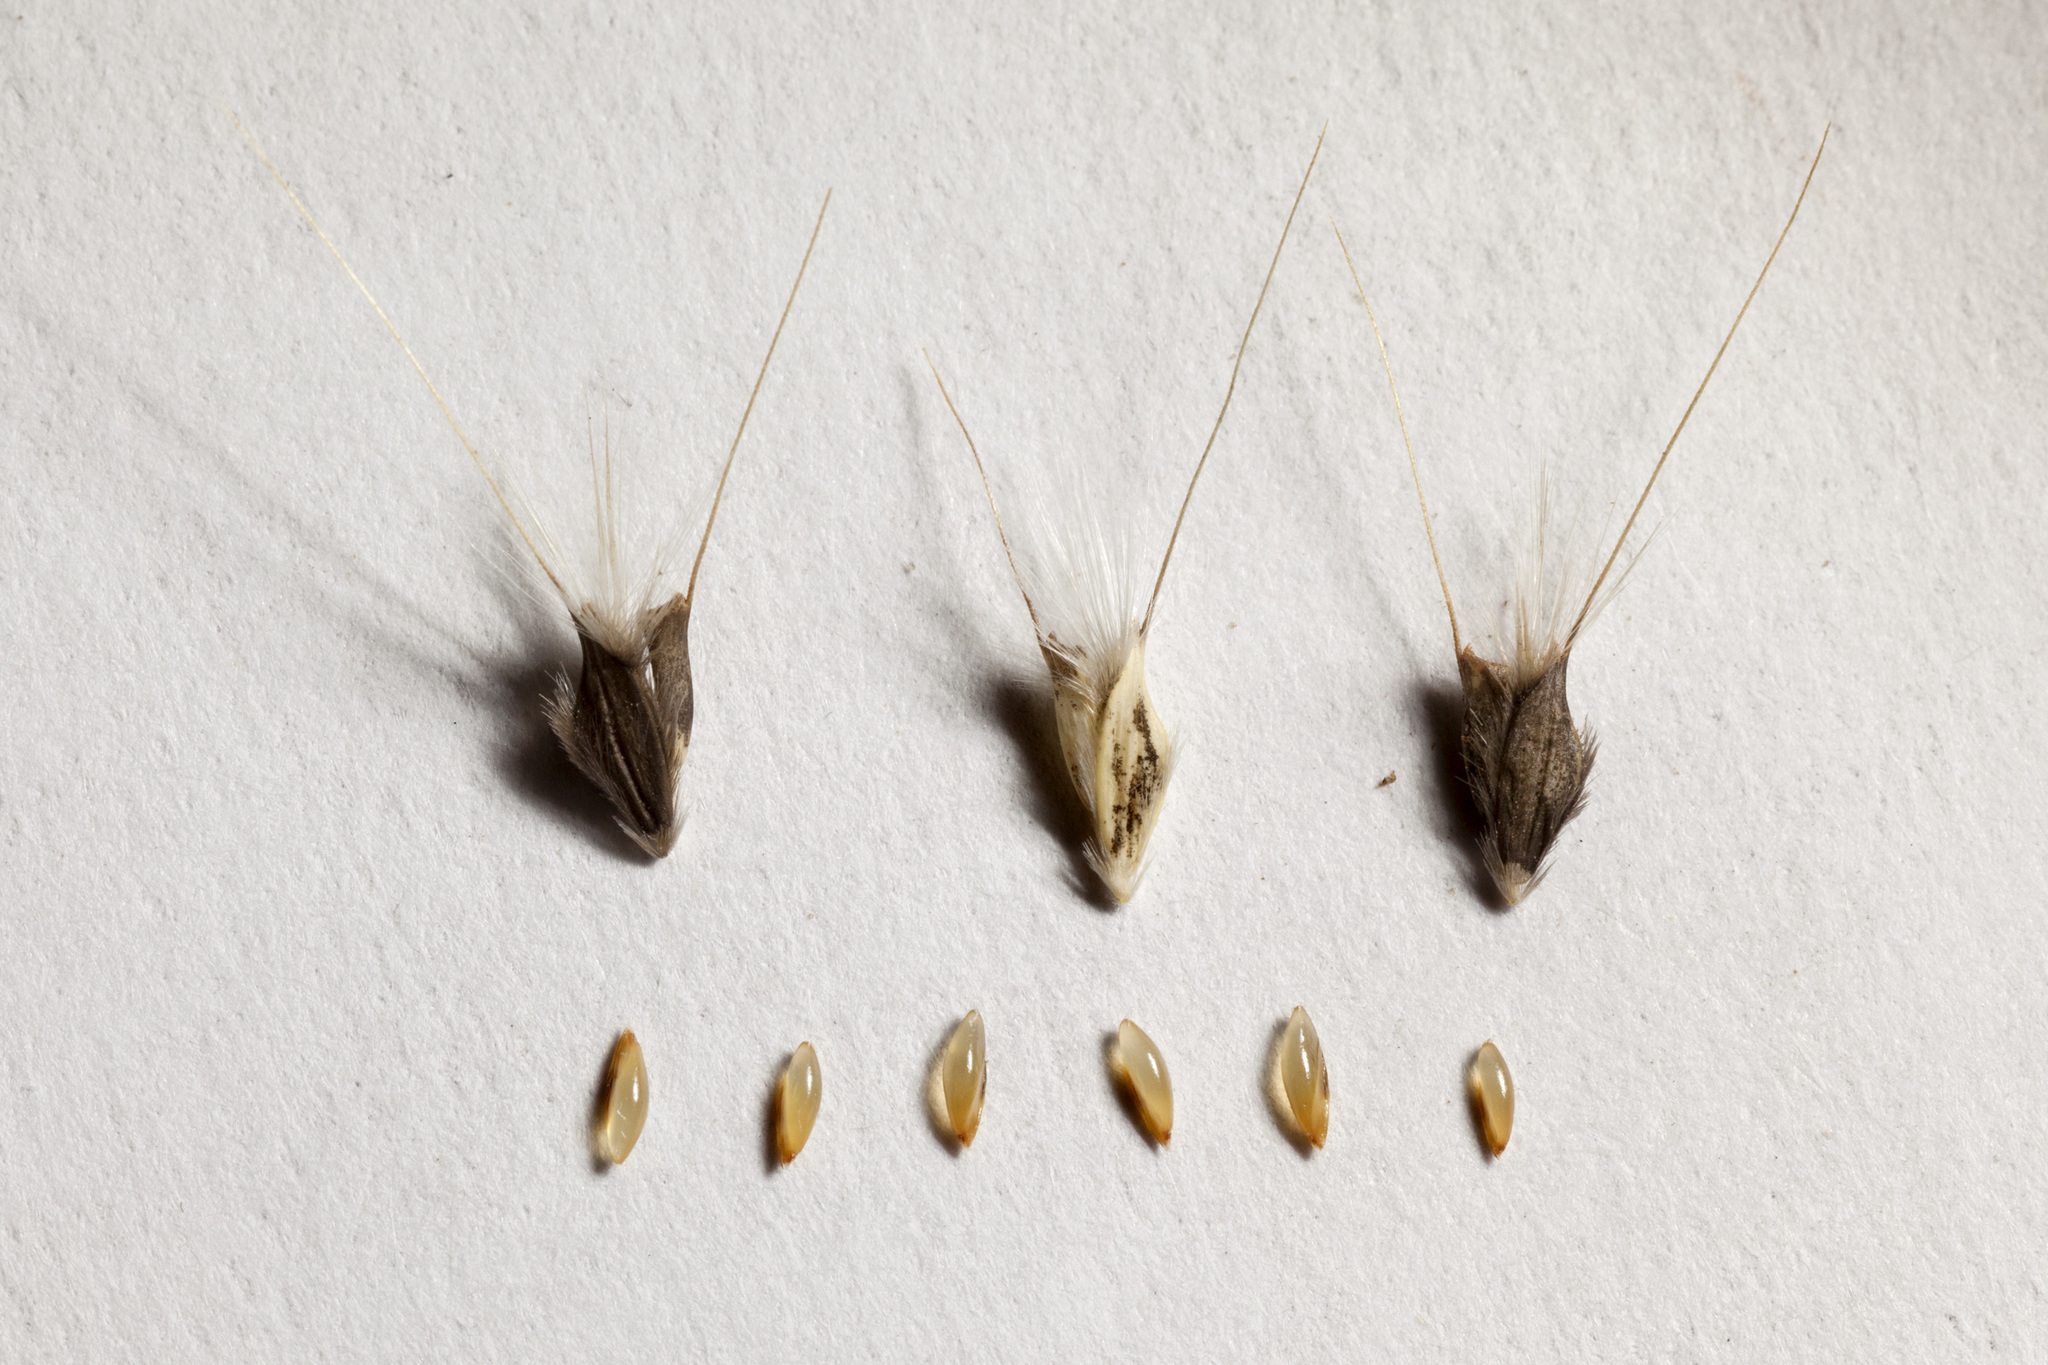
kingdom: Plantae
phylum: Tracheophyta
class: Liliopsida
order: Poales
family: Poaceae
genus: Chloris
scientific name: Chloris virgata
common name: Feathery rhodes-grass
